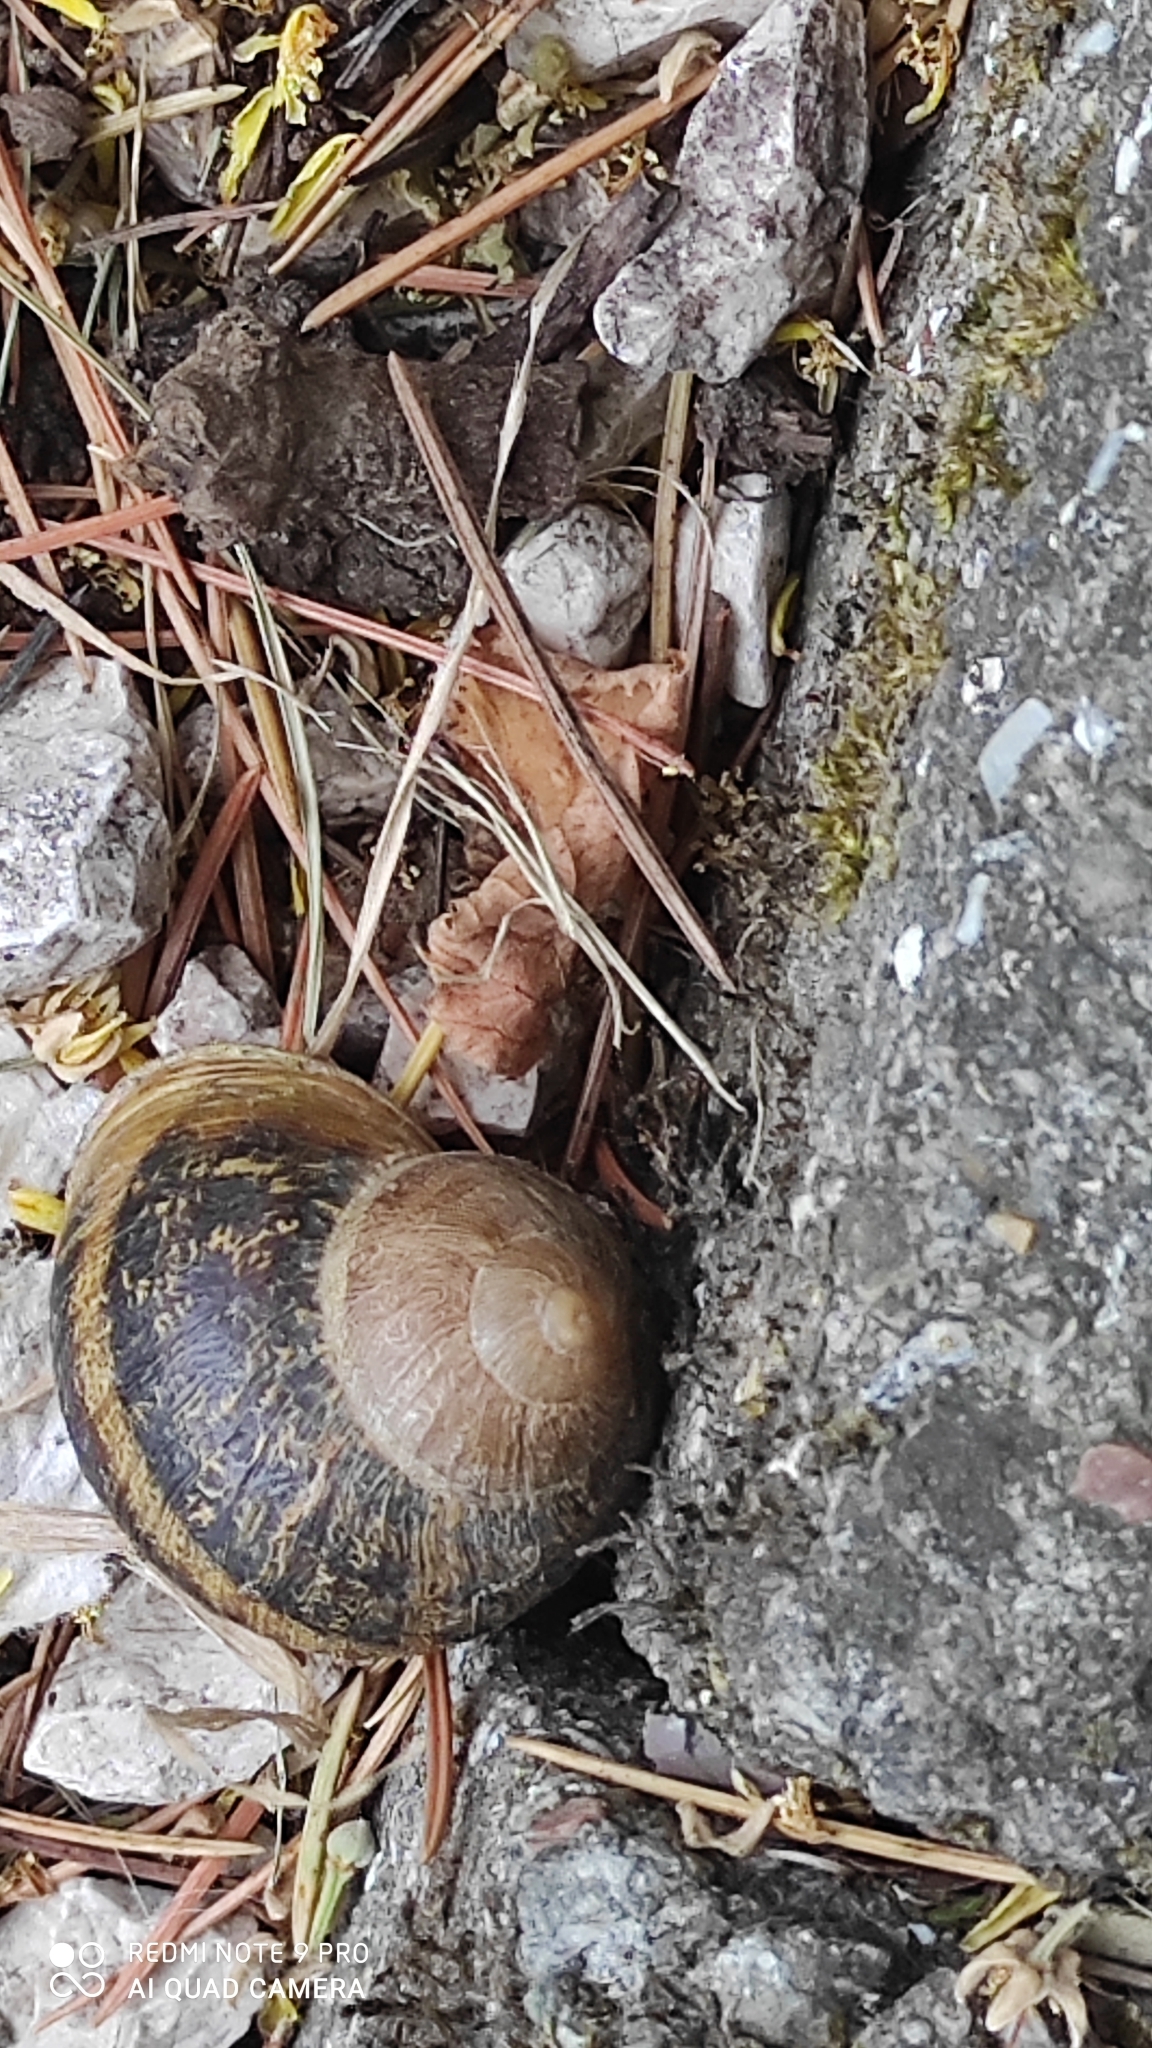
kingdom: Animalia
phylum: Mollusca
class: Gastropoda
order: Stylommatophora
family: Helicidae
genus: Cornu
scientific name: Cornu aspersum
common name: Brown garden snail
